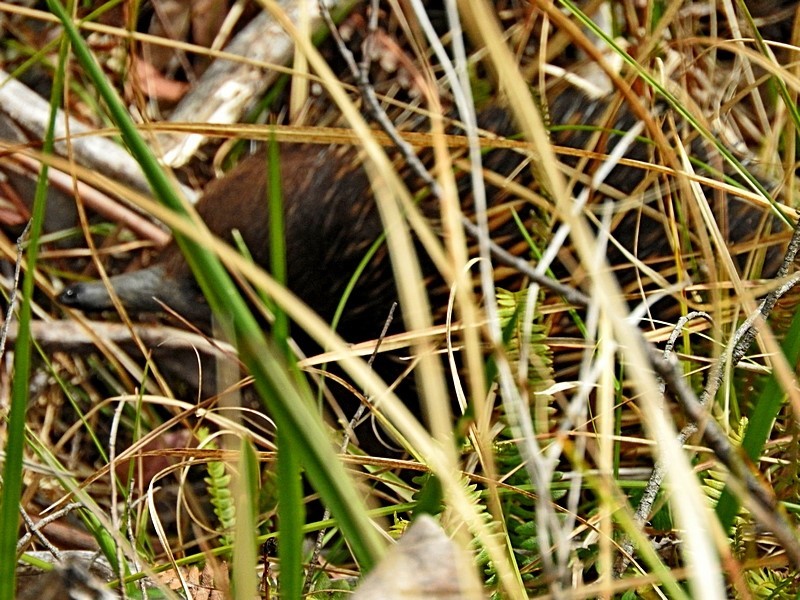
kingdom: Animalia
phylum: Chordata
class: Mammalia
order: Monotremata
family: Tachyglossidae
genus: Tachyglossus
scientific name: Tachyglossus aculeatus
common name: Short-beaked echidna
